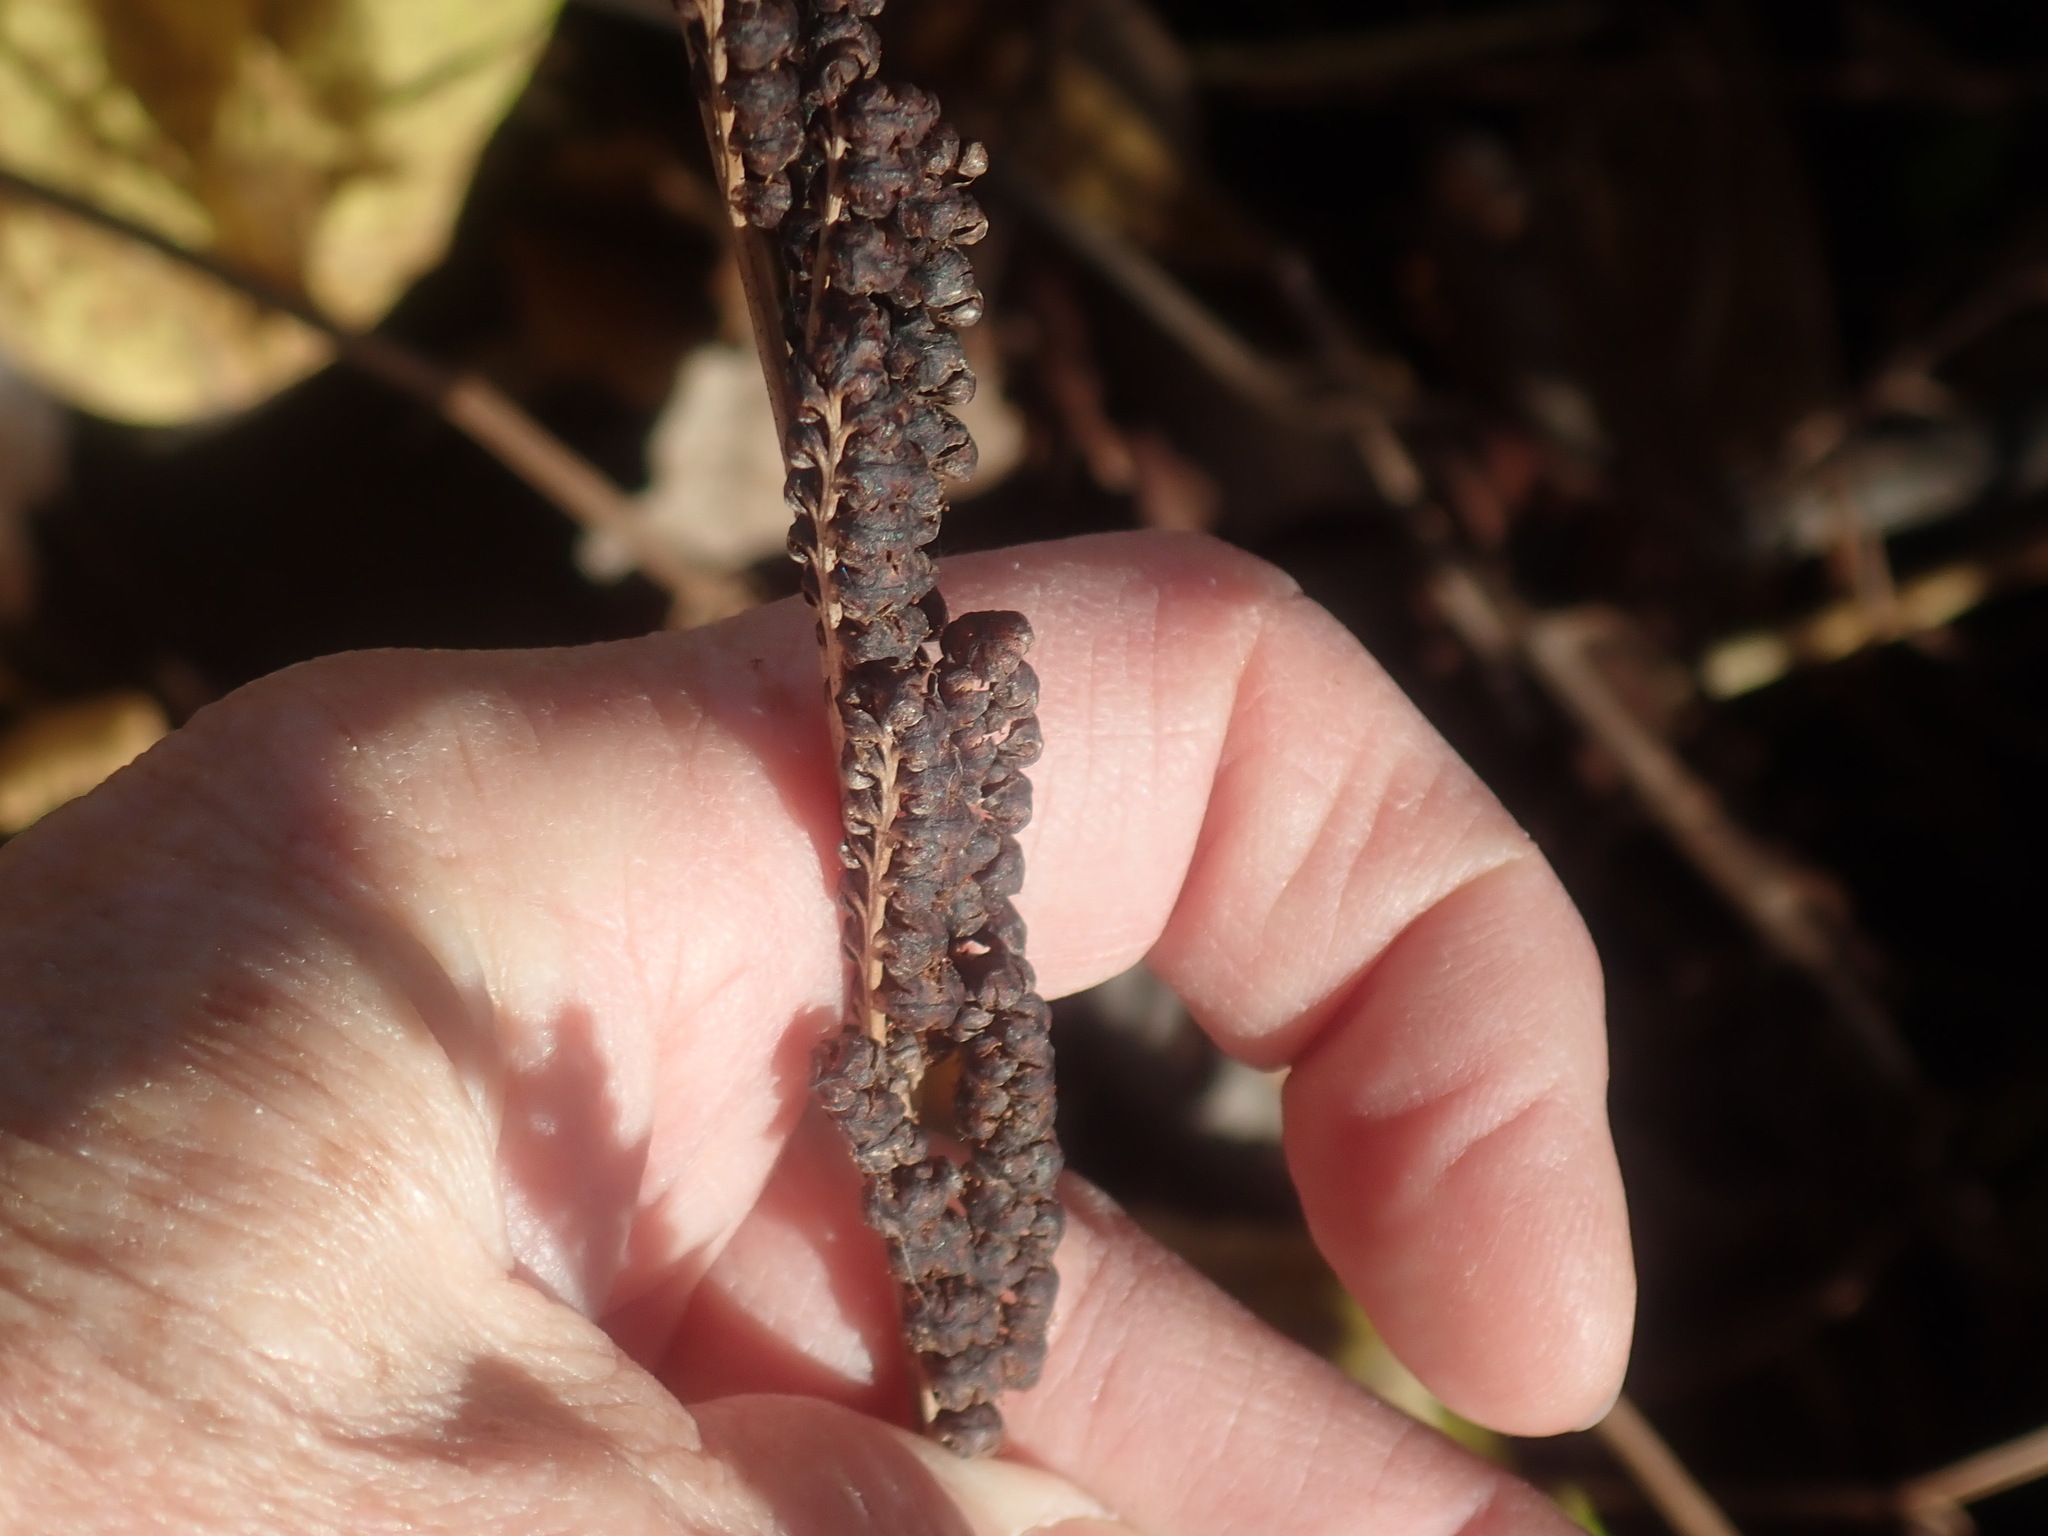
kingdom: Plantae
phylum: Tracheophyta
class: Polypodiopsida
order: Polypodiales
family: Onocleaceae
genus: Onoclea
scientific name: Onoclea sensibilis
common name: Sensitive fern
